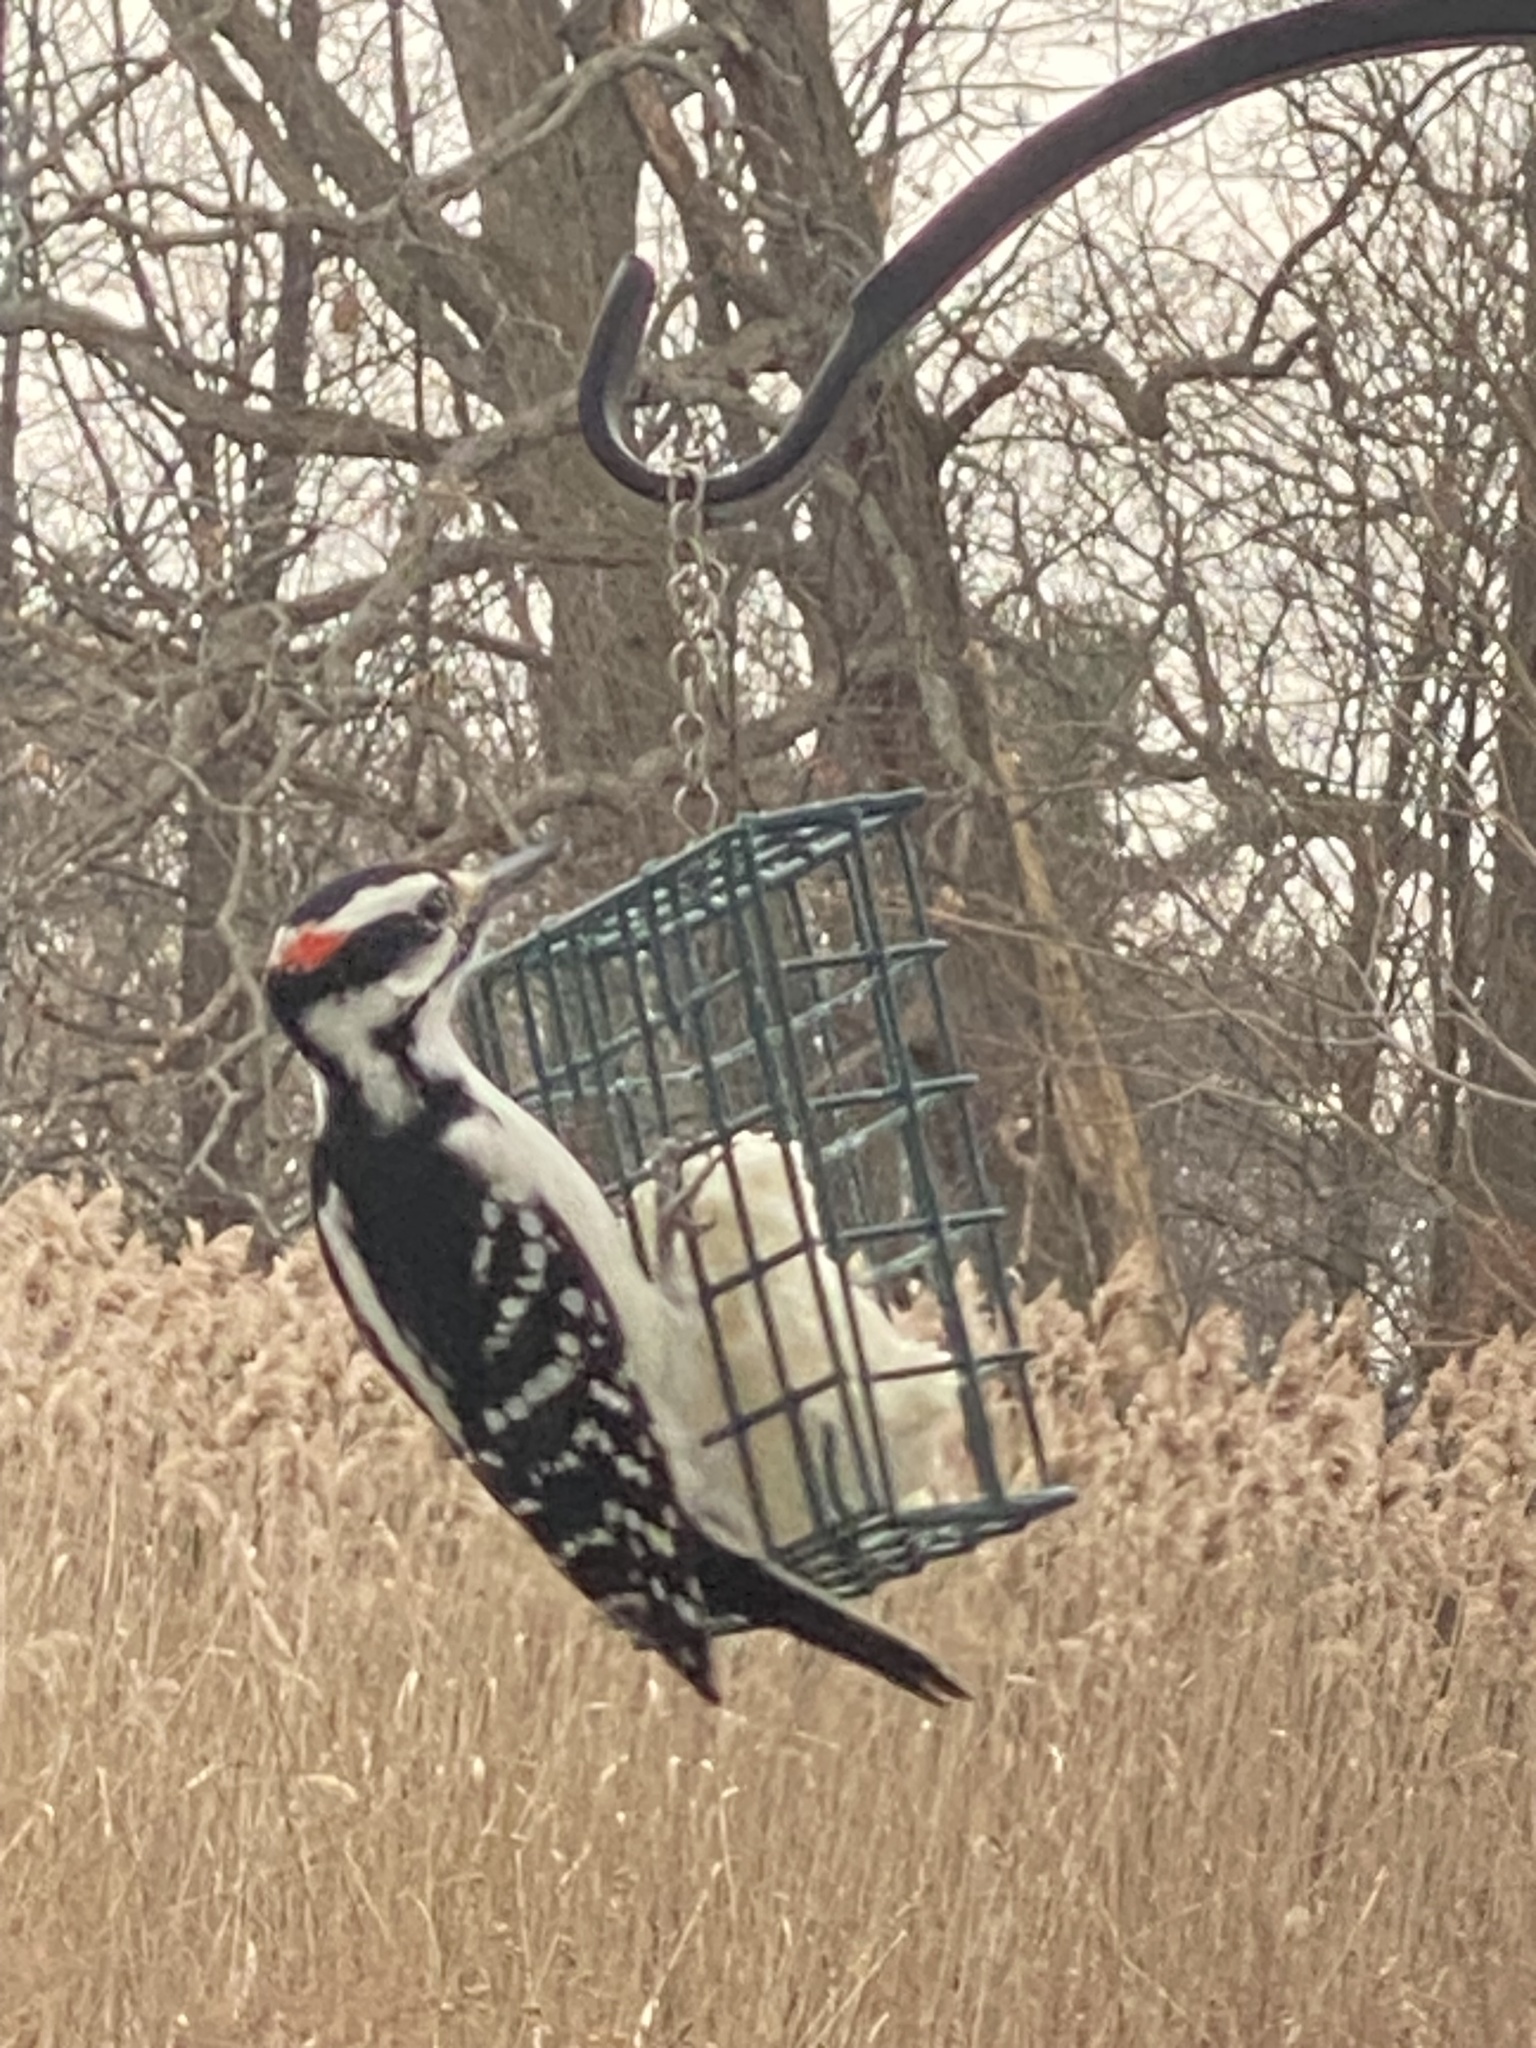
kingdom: Animalia
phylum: Chordata
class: Aves
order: Piciformes
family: Picidae
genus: Leuconotopicus
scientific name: Leuconotopicus villosus
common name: Hairy woodpecker
